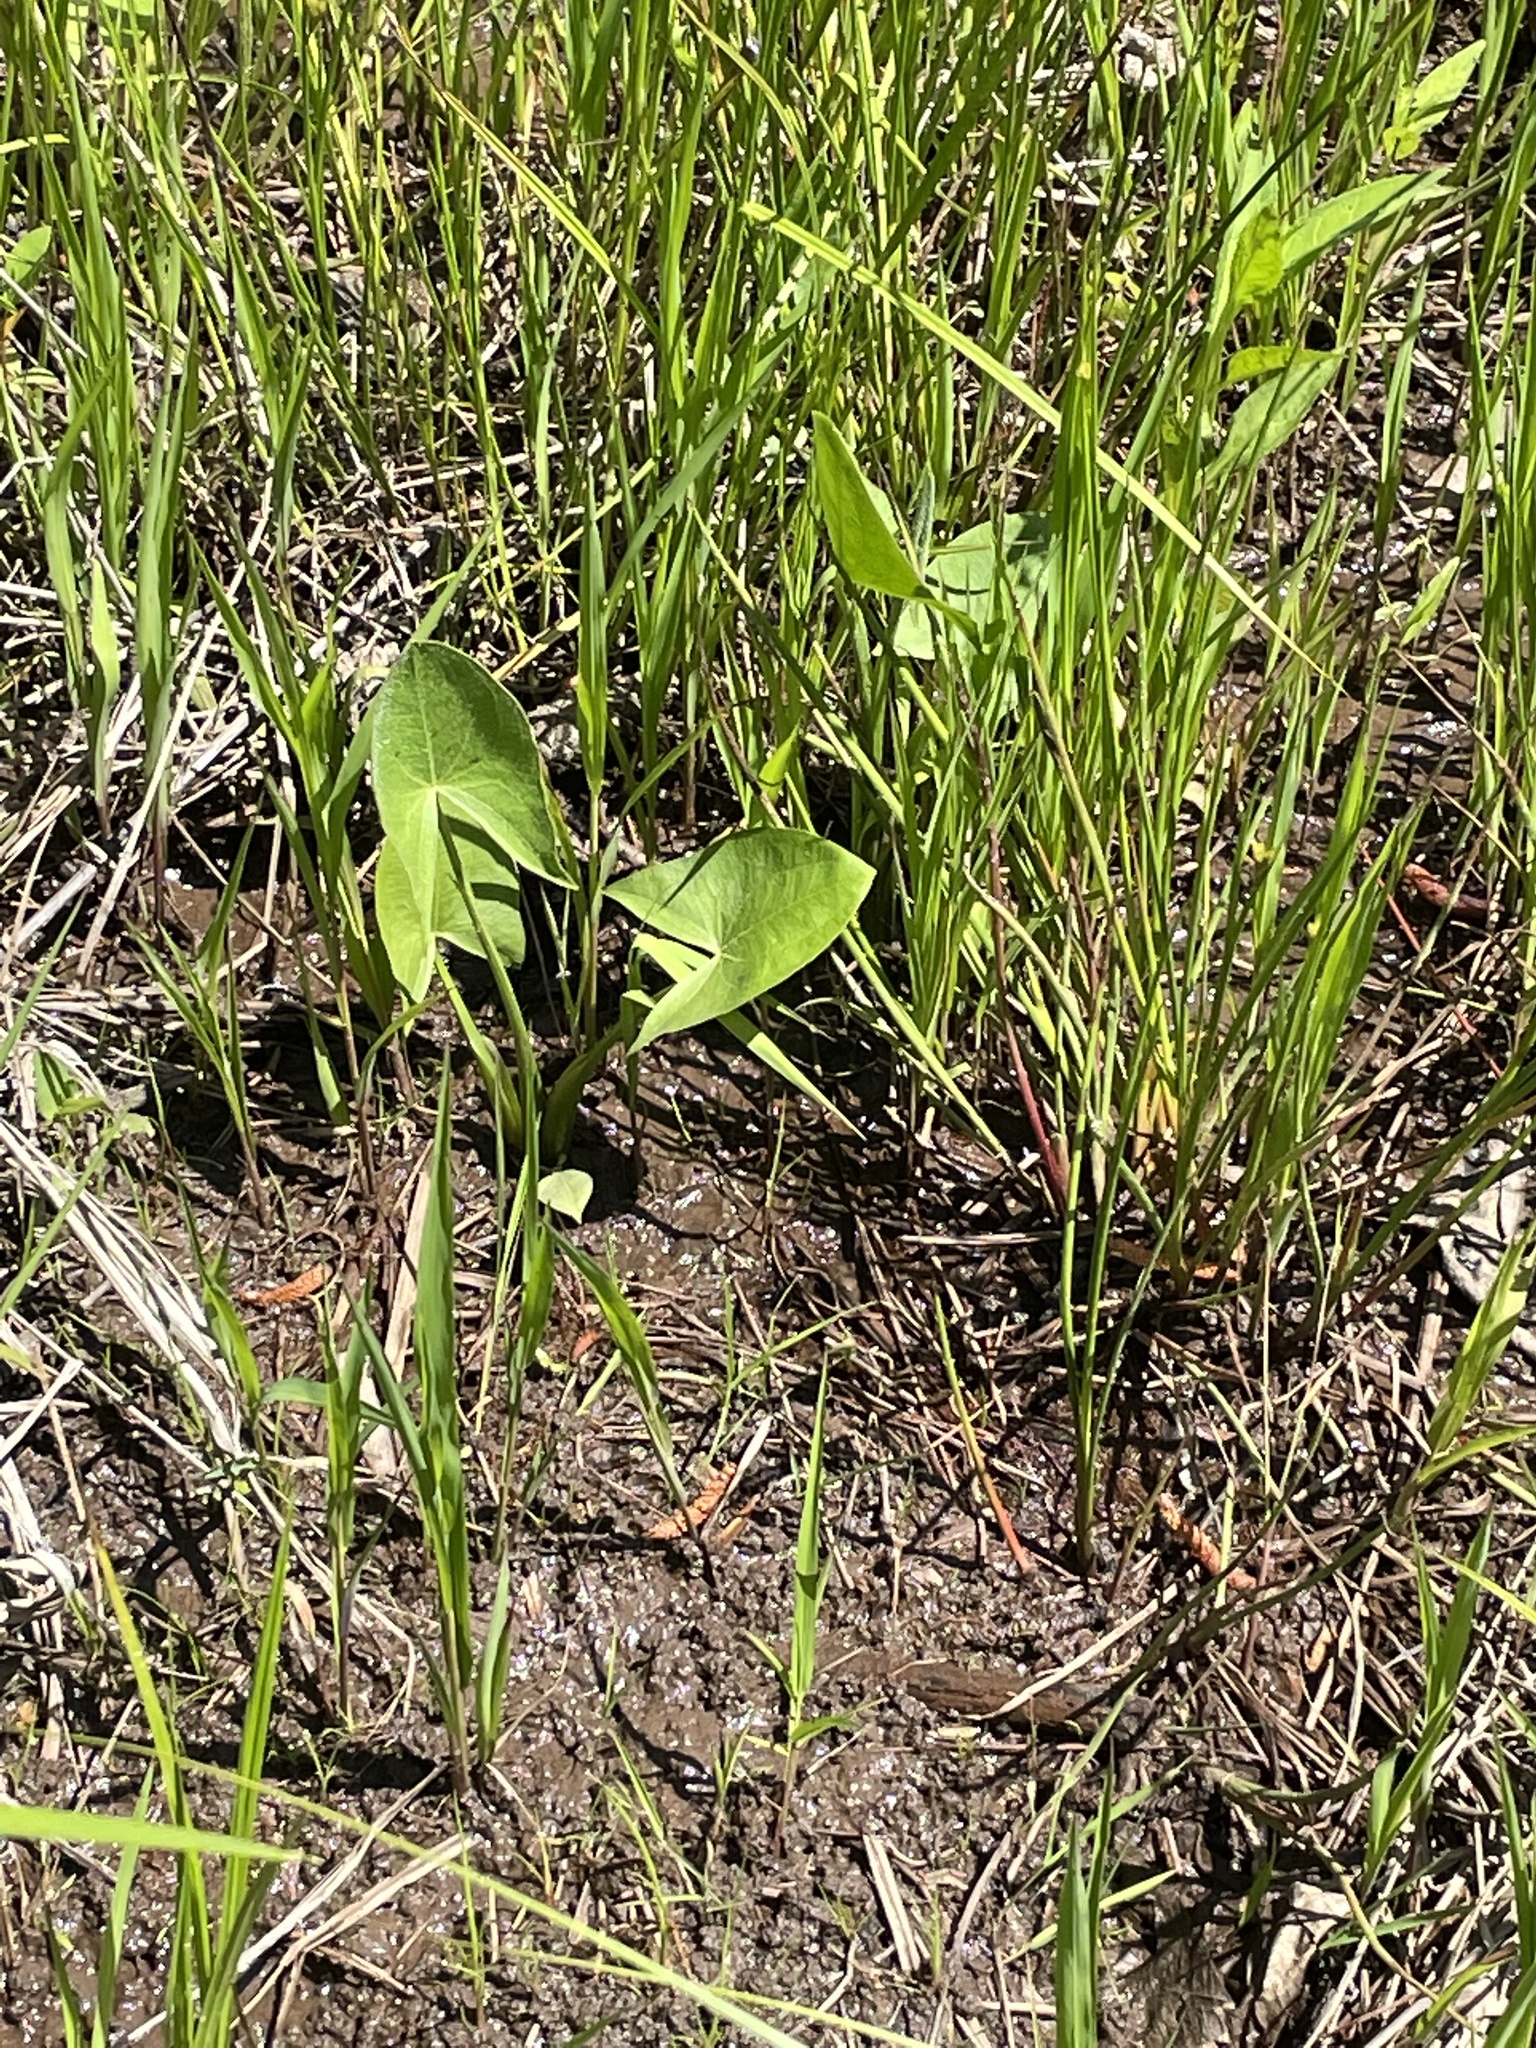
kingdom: Plantae
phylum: Tracheophyta
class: Liliopsida
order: Alismatales
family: Alismataceae
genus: Sagittaria
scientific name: Sagittaria latifolia
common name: Duck-potato
